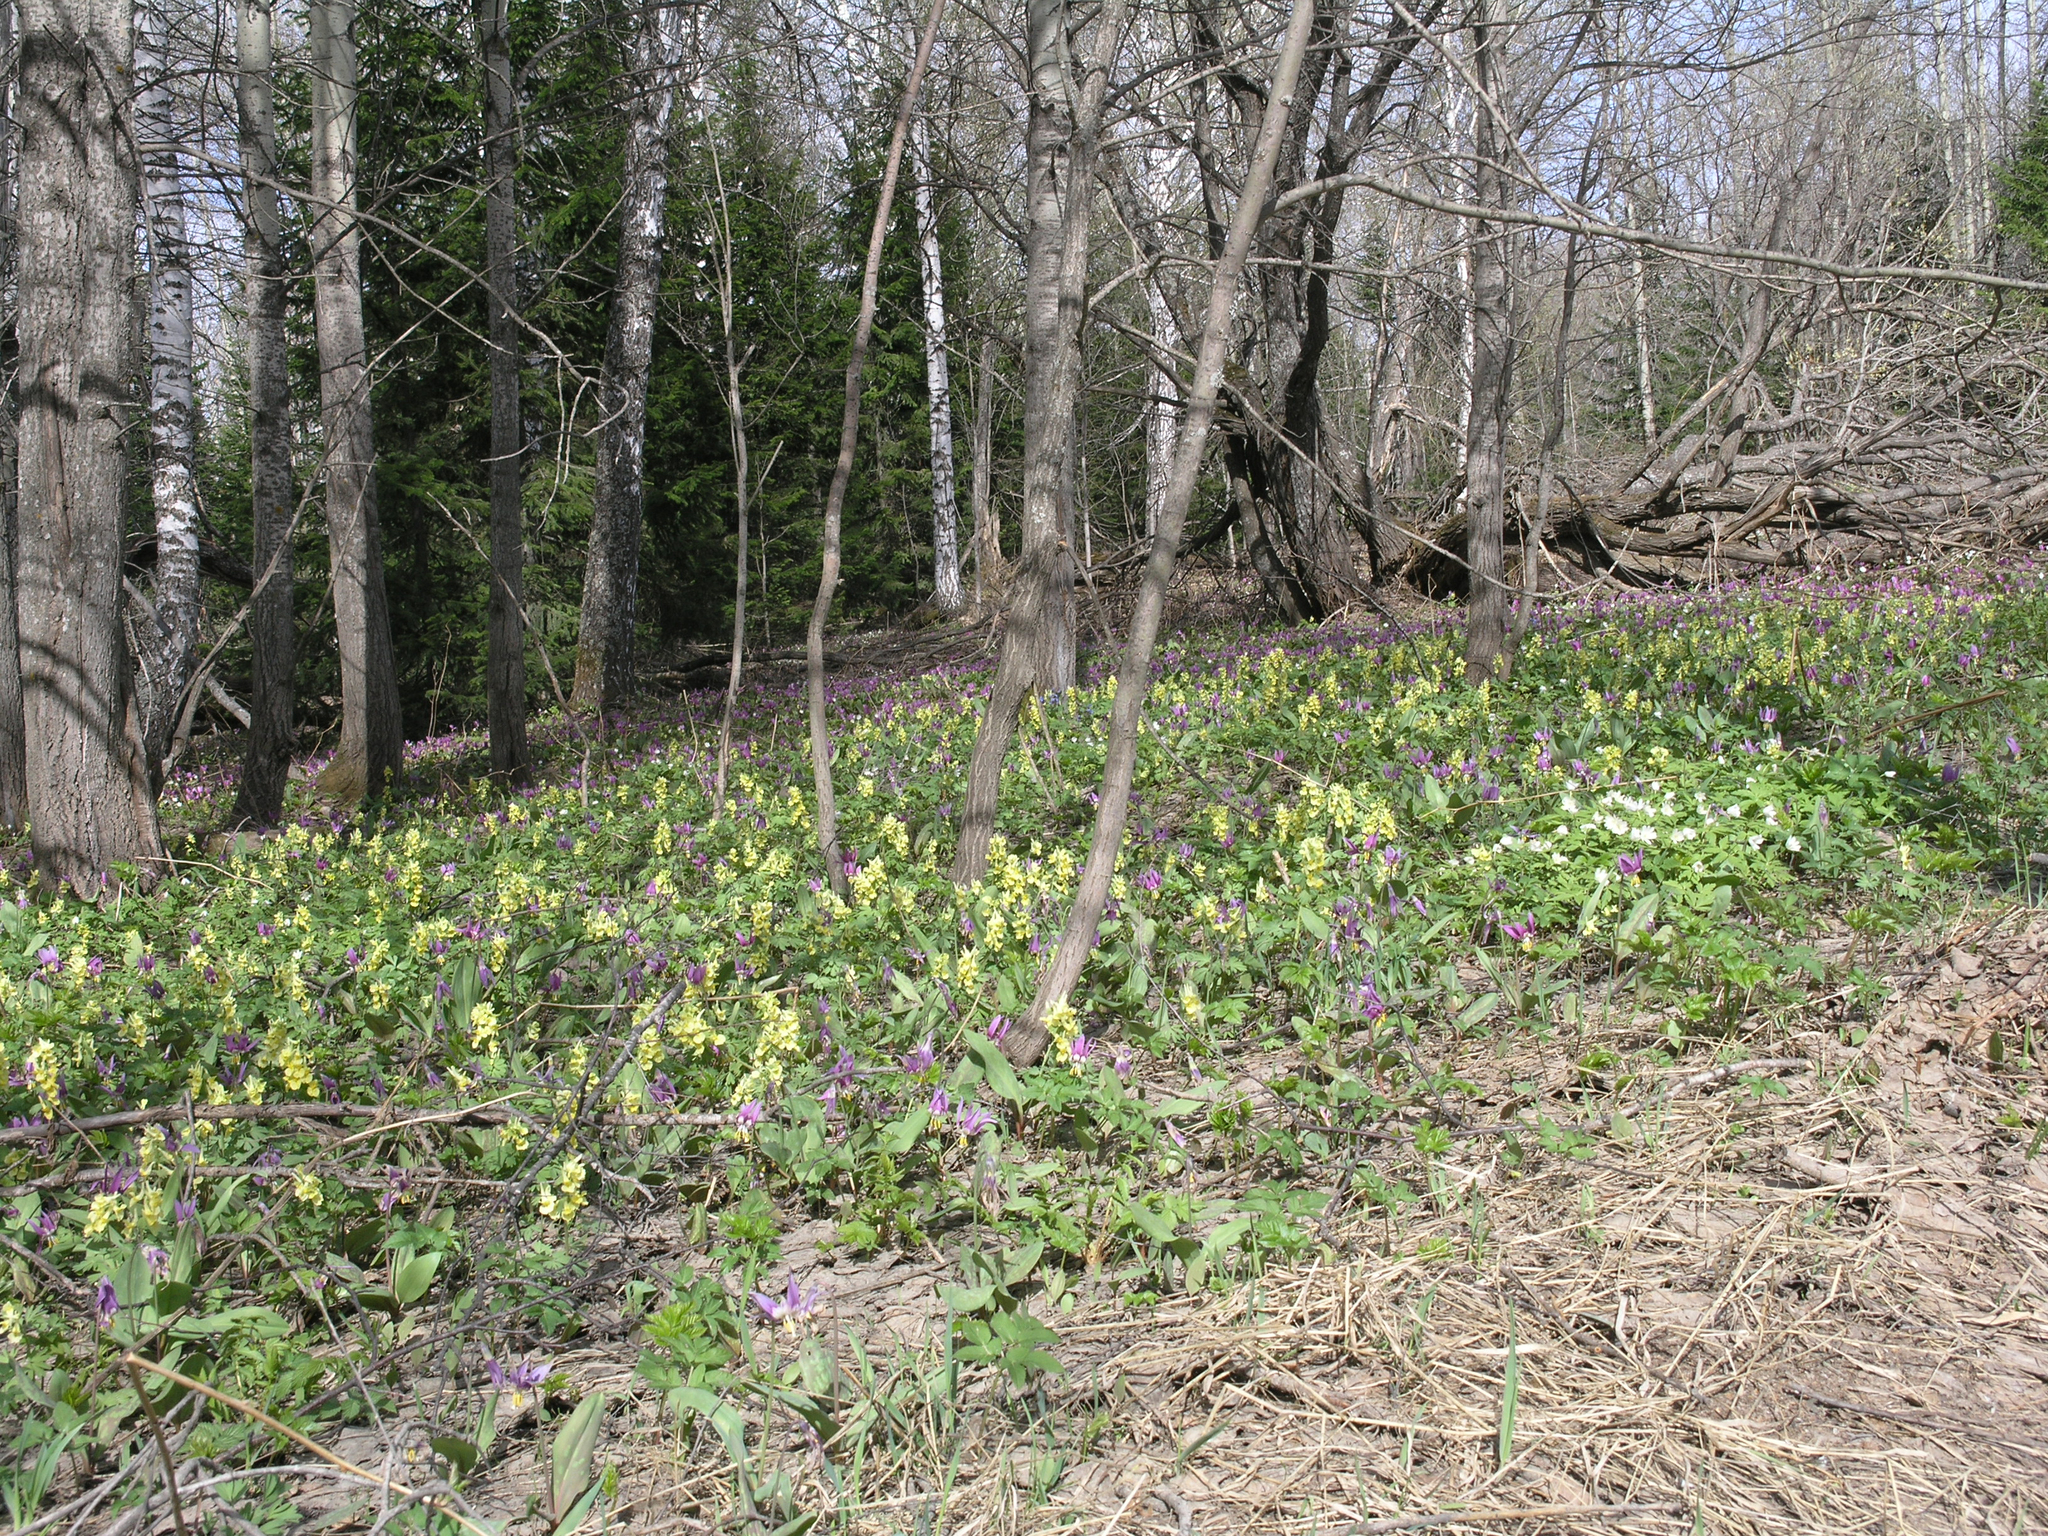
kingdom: Plantae
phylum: Tracheophyta
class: Pinopsida
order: Pinales
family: Pinaceae
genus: Abies
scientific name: Abies sibirica
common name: Siberian fir
